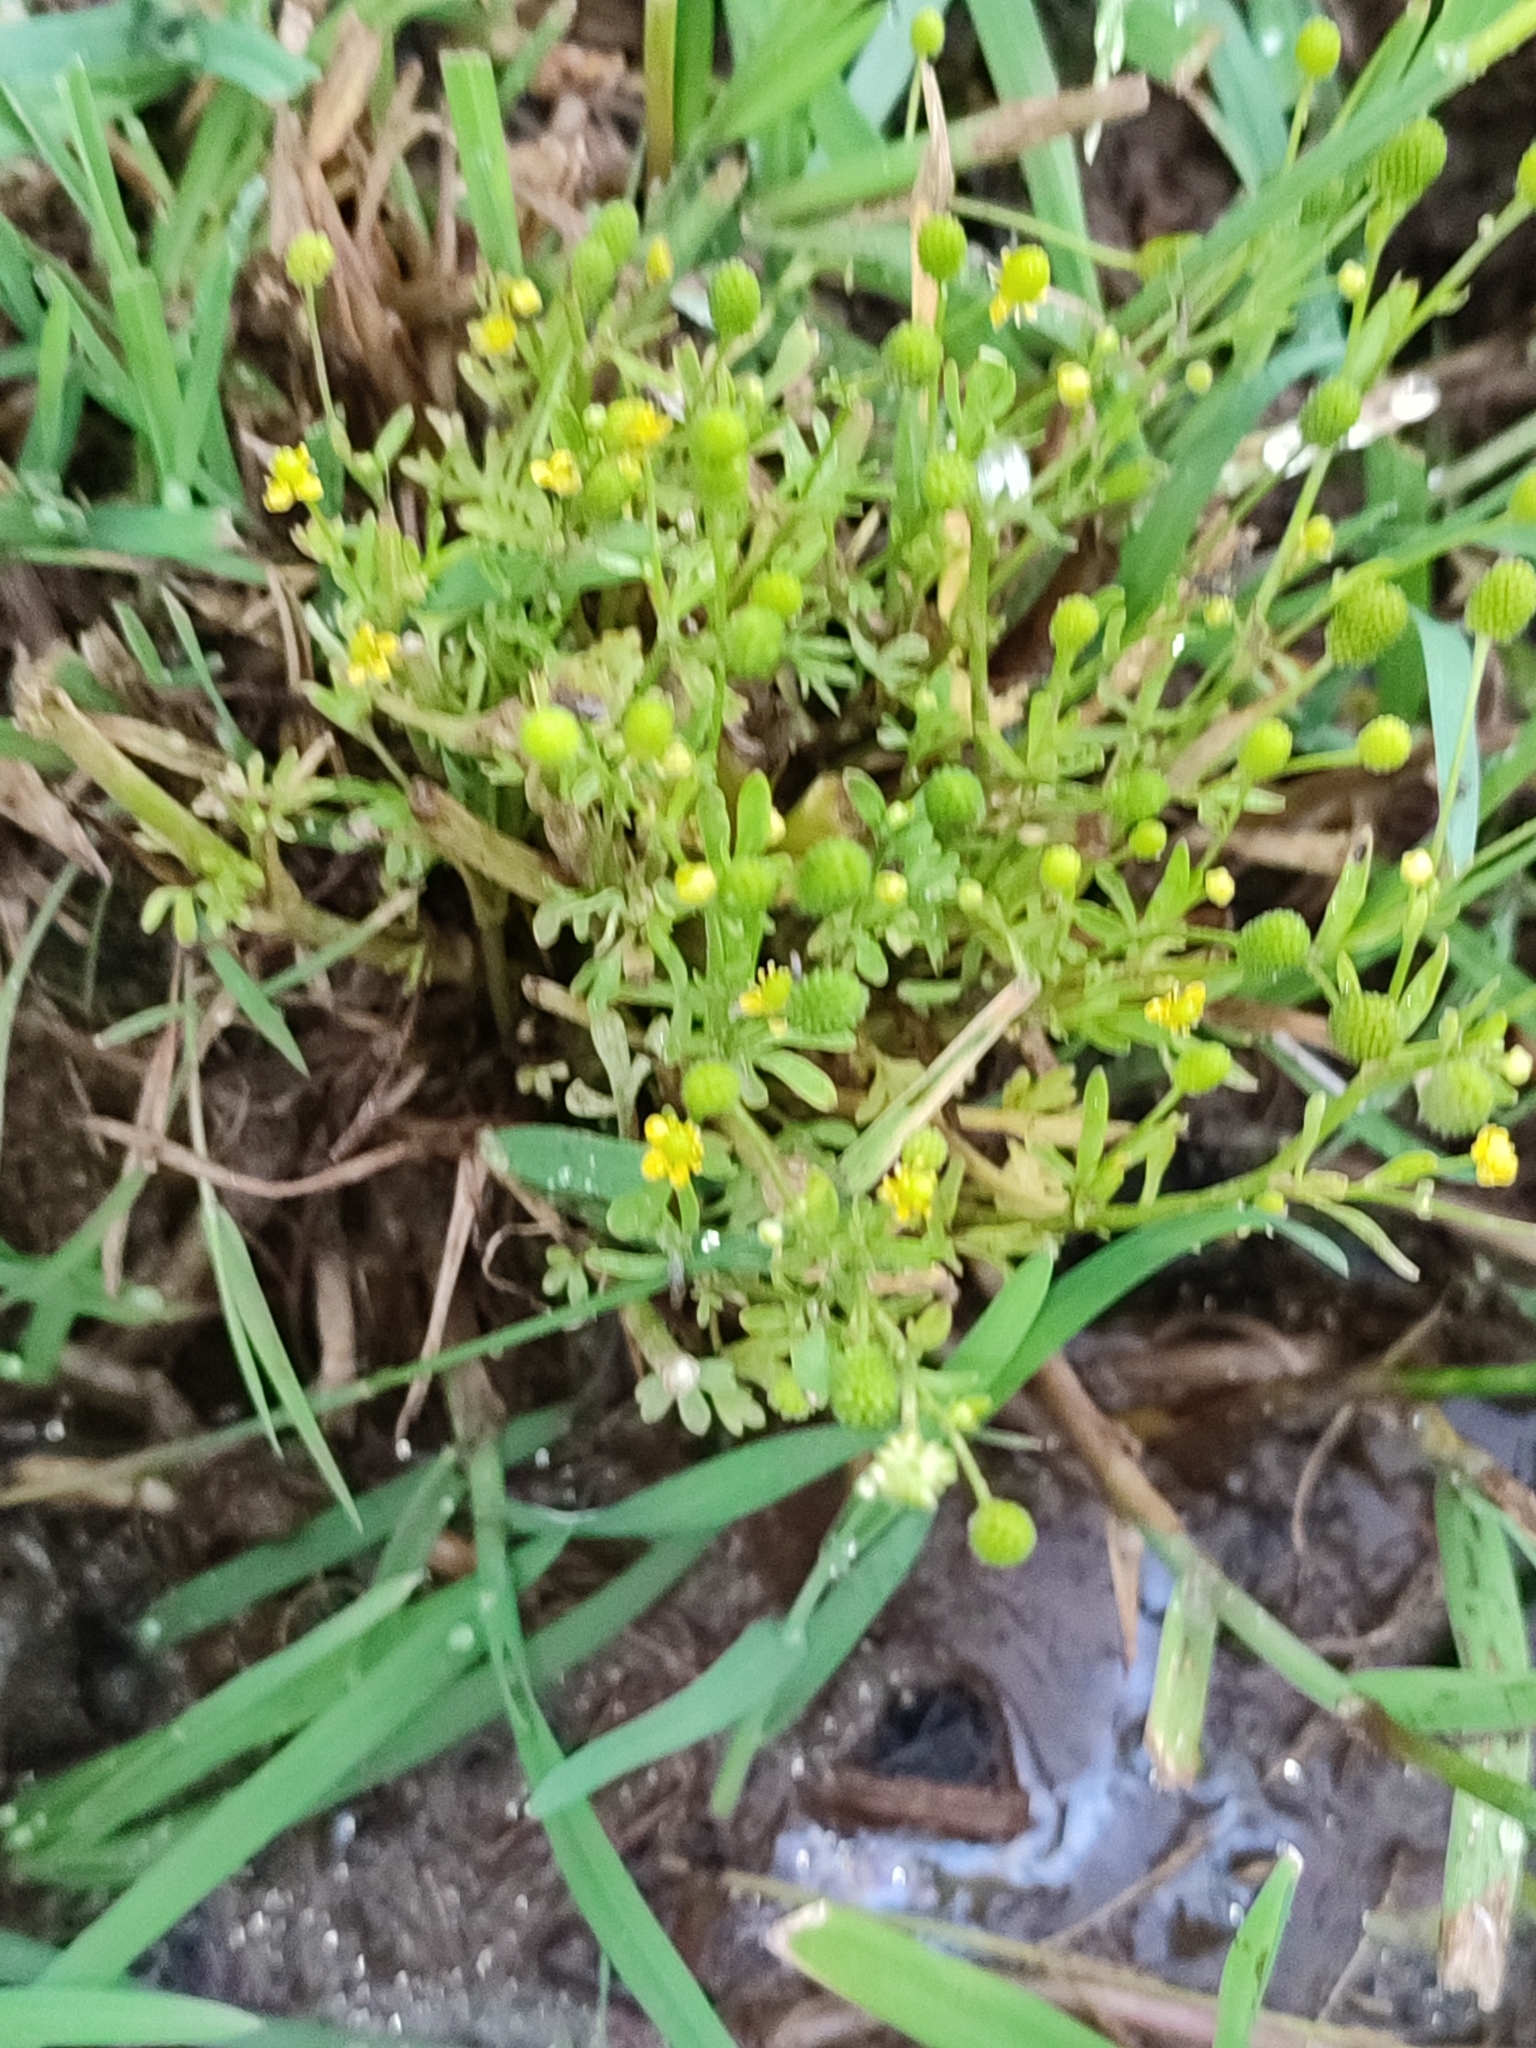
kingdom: Plantae
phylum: Tracheophyta
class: Magnoliopsida
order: Ranunculales
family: Ranunculaceae
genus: Ranunculus
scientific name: Ranunculus sceleratus
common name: Celery-leaved buttercup
